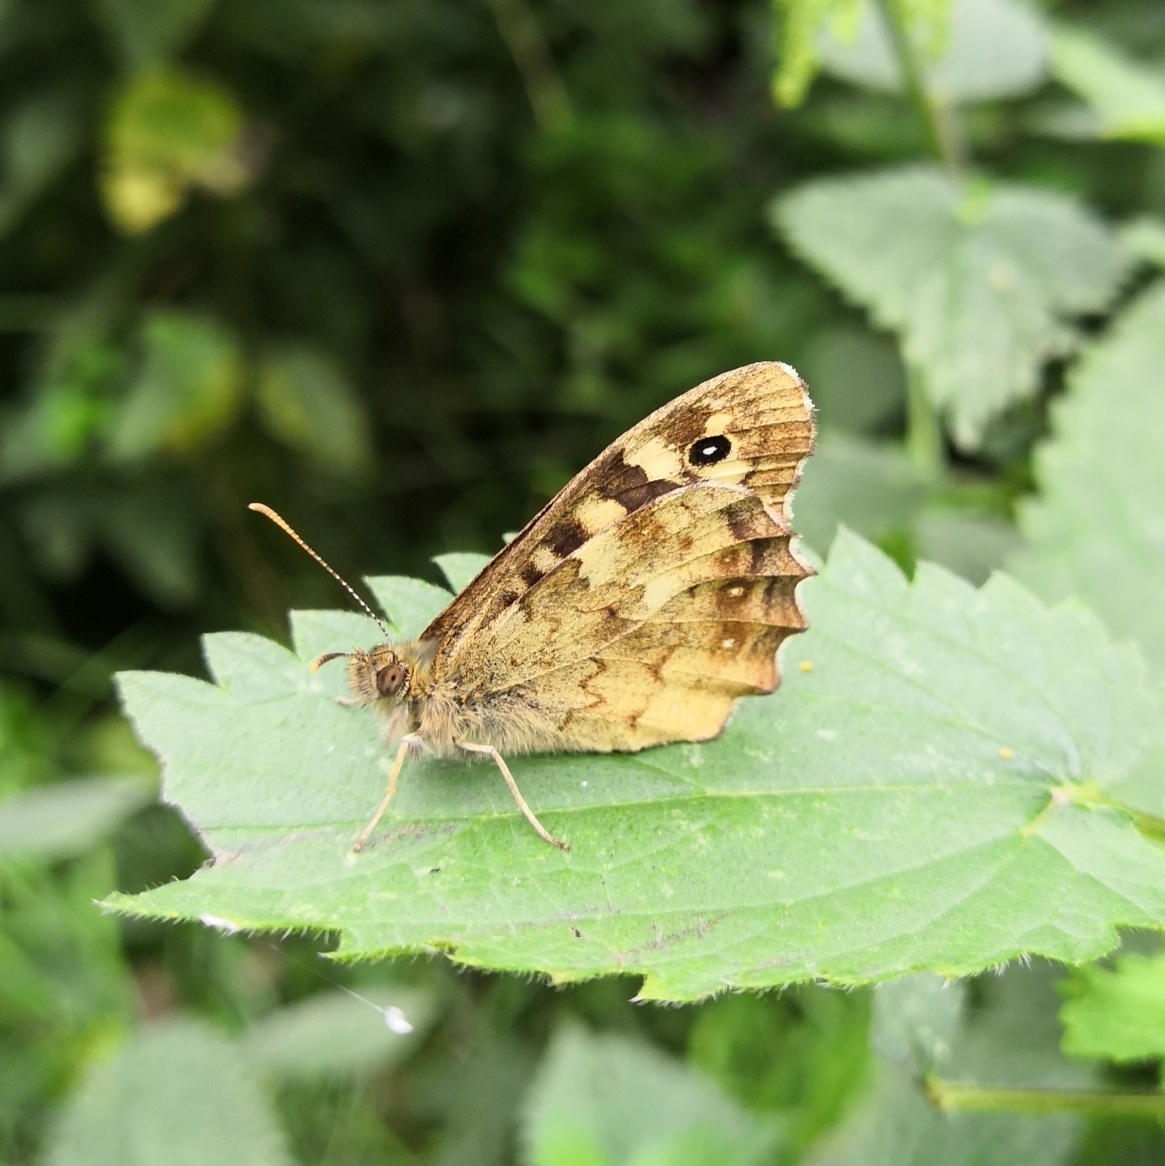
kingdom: Animalia
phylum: Arthropoda
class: Insecta
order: Lepidoptera
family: Nymphalidae
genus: Pararge
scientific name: Pararge aegeria
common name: Speckled wood
